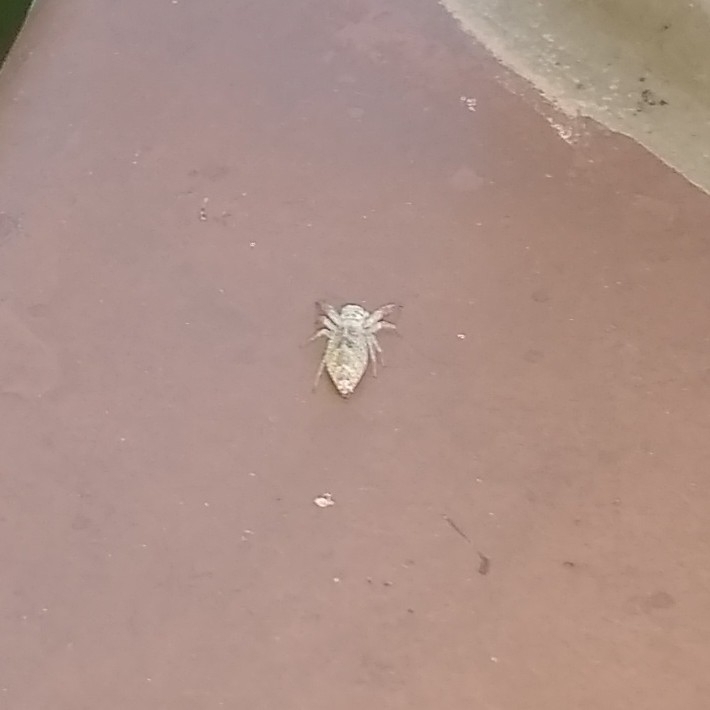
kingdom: Animalia
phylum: Arthropoda
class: Arachnida
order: Araneae
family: Salticidae
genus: Hentzia
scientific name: Hentzia
